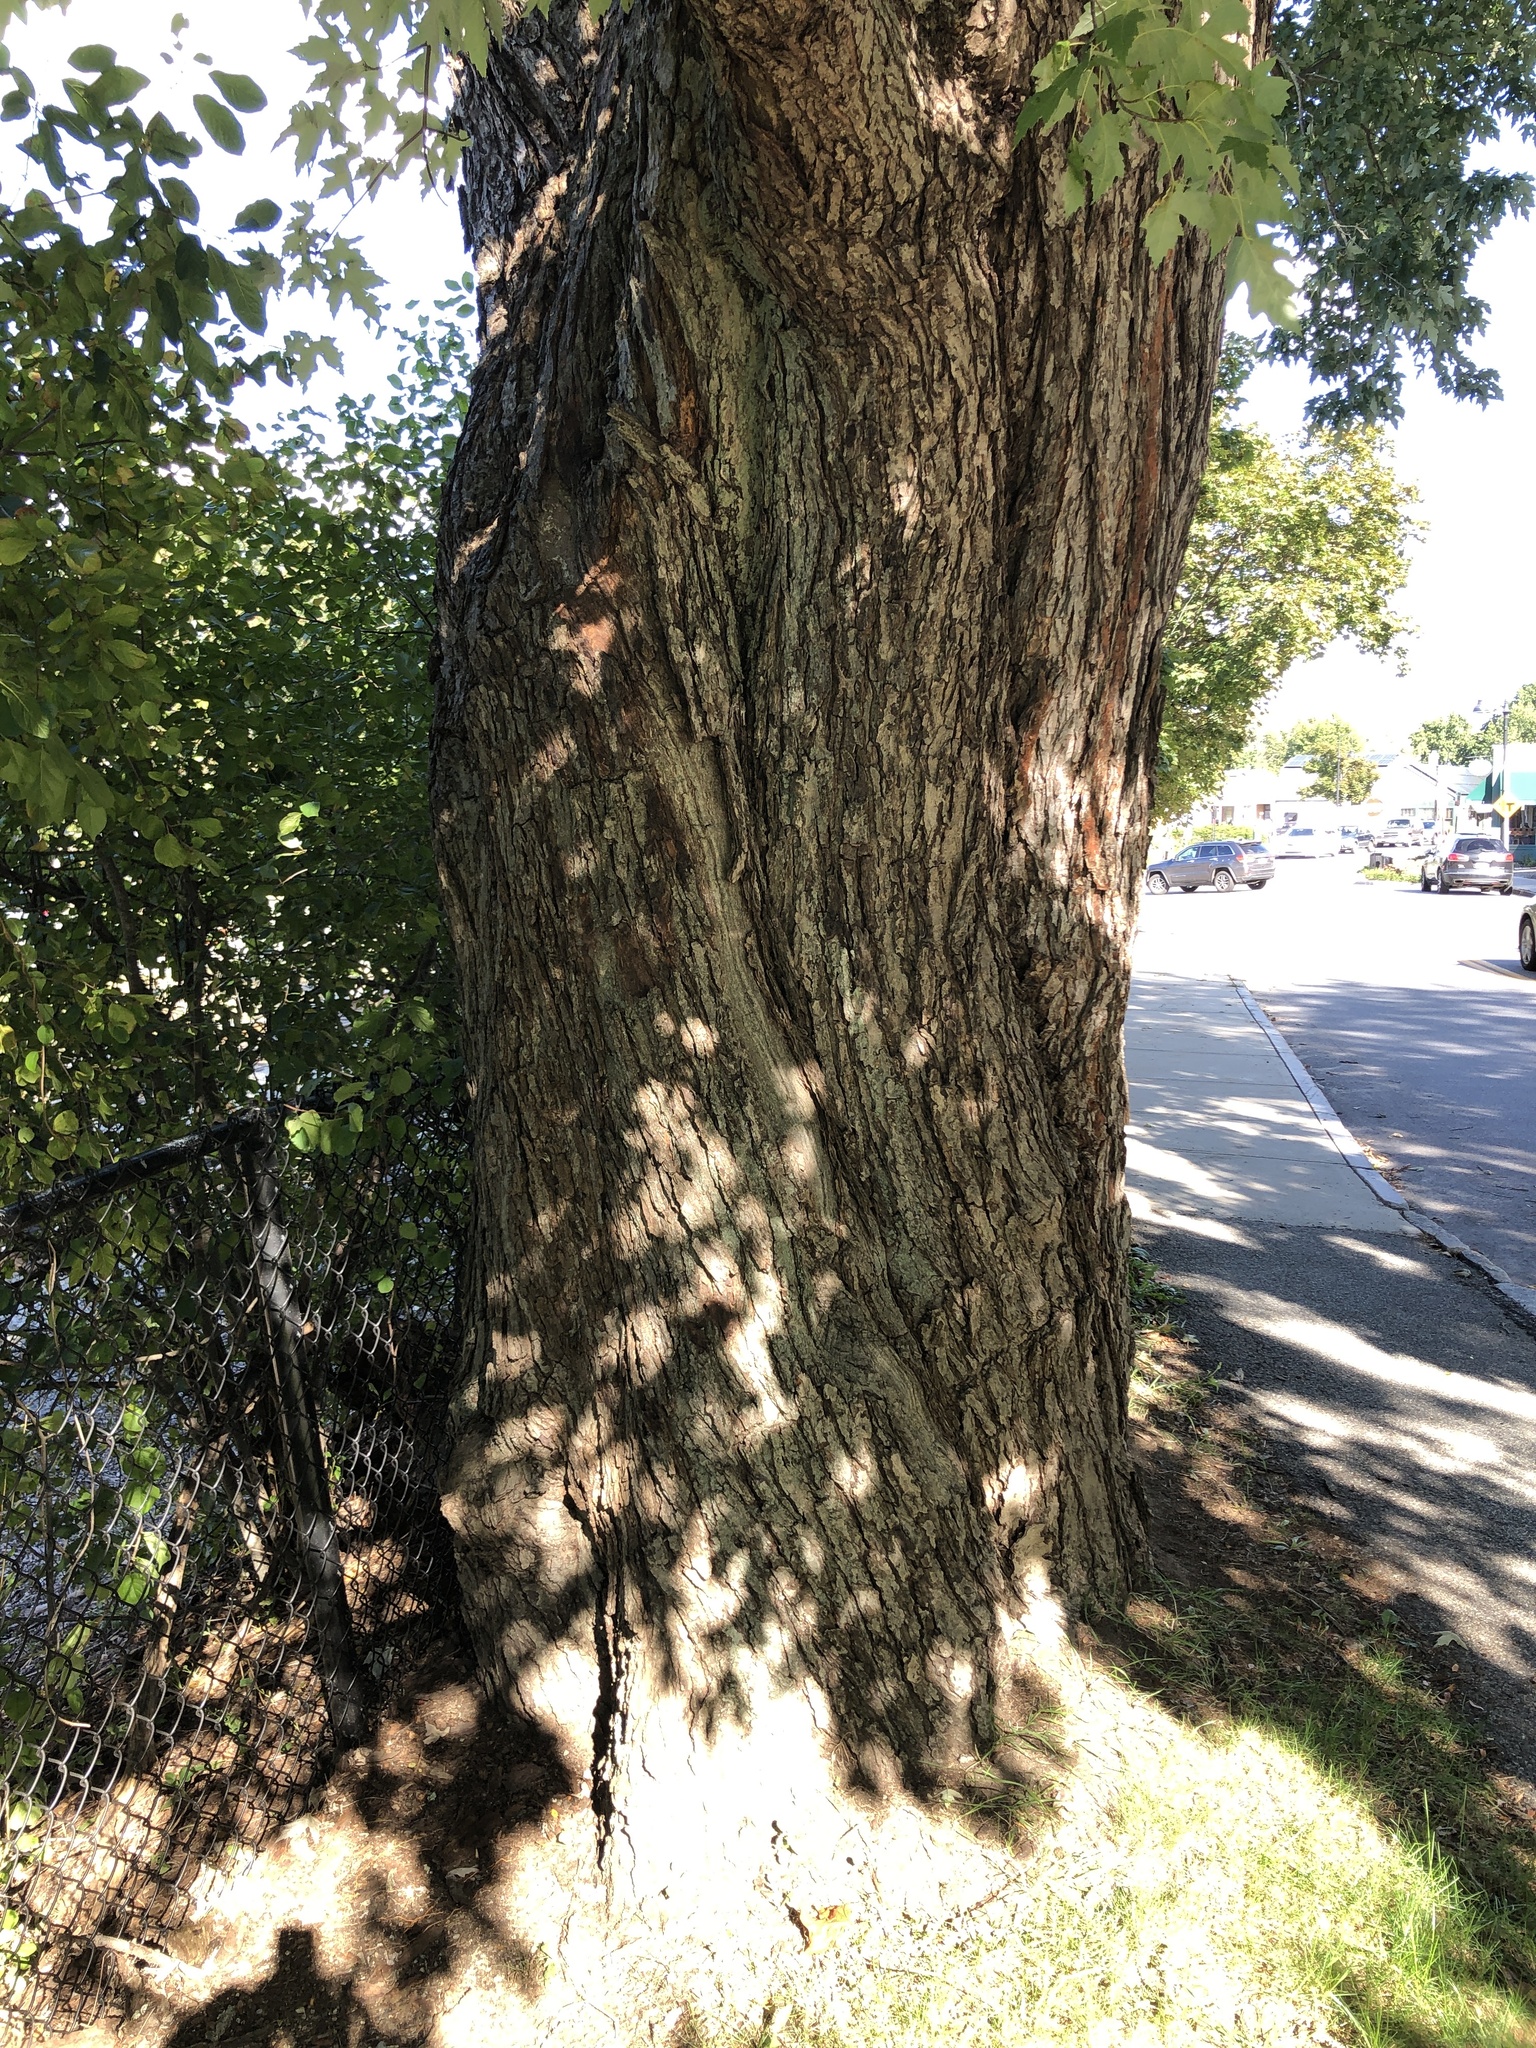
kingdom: Plantae
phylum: Tracheophyta
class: Magnoliopsida
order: Sapindales
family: Sapindaceae
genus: Acer
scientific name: Acer saccharinum
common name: Silver maple
